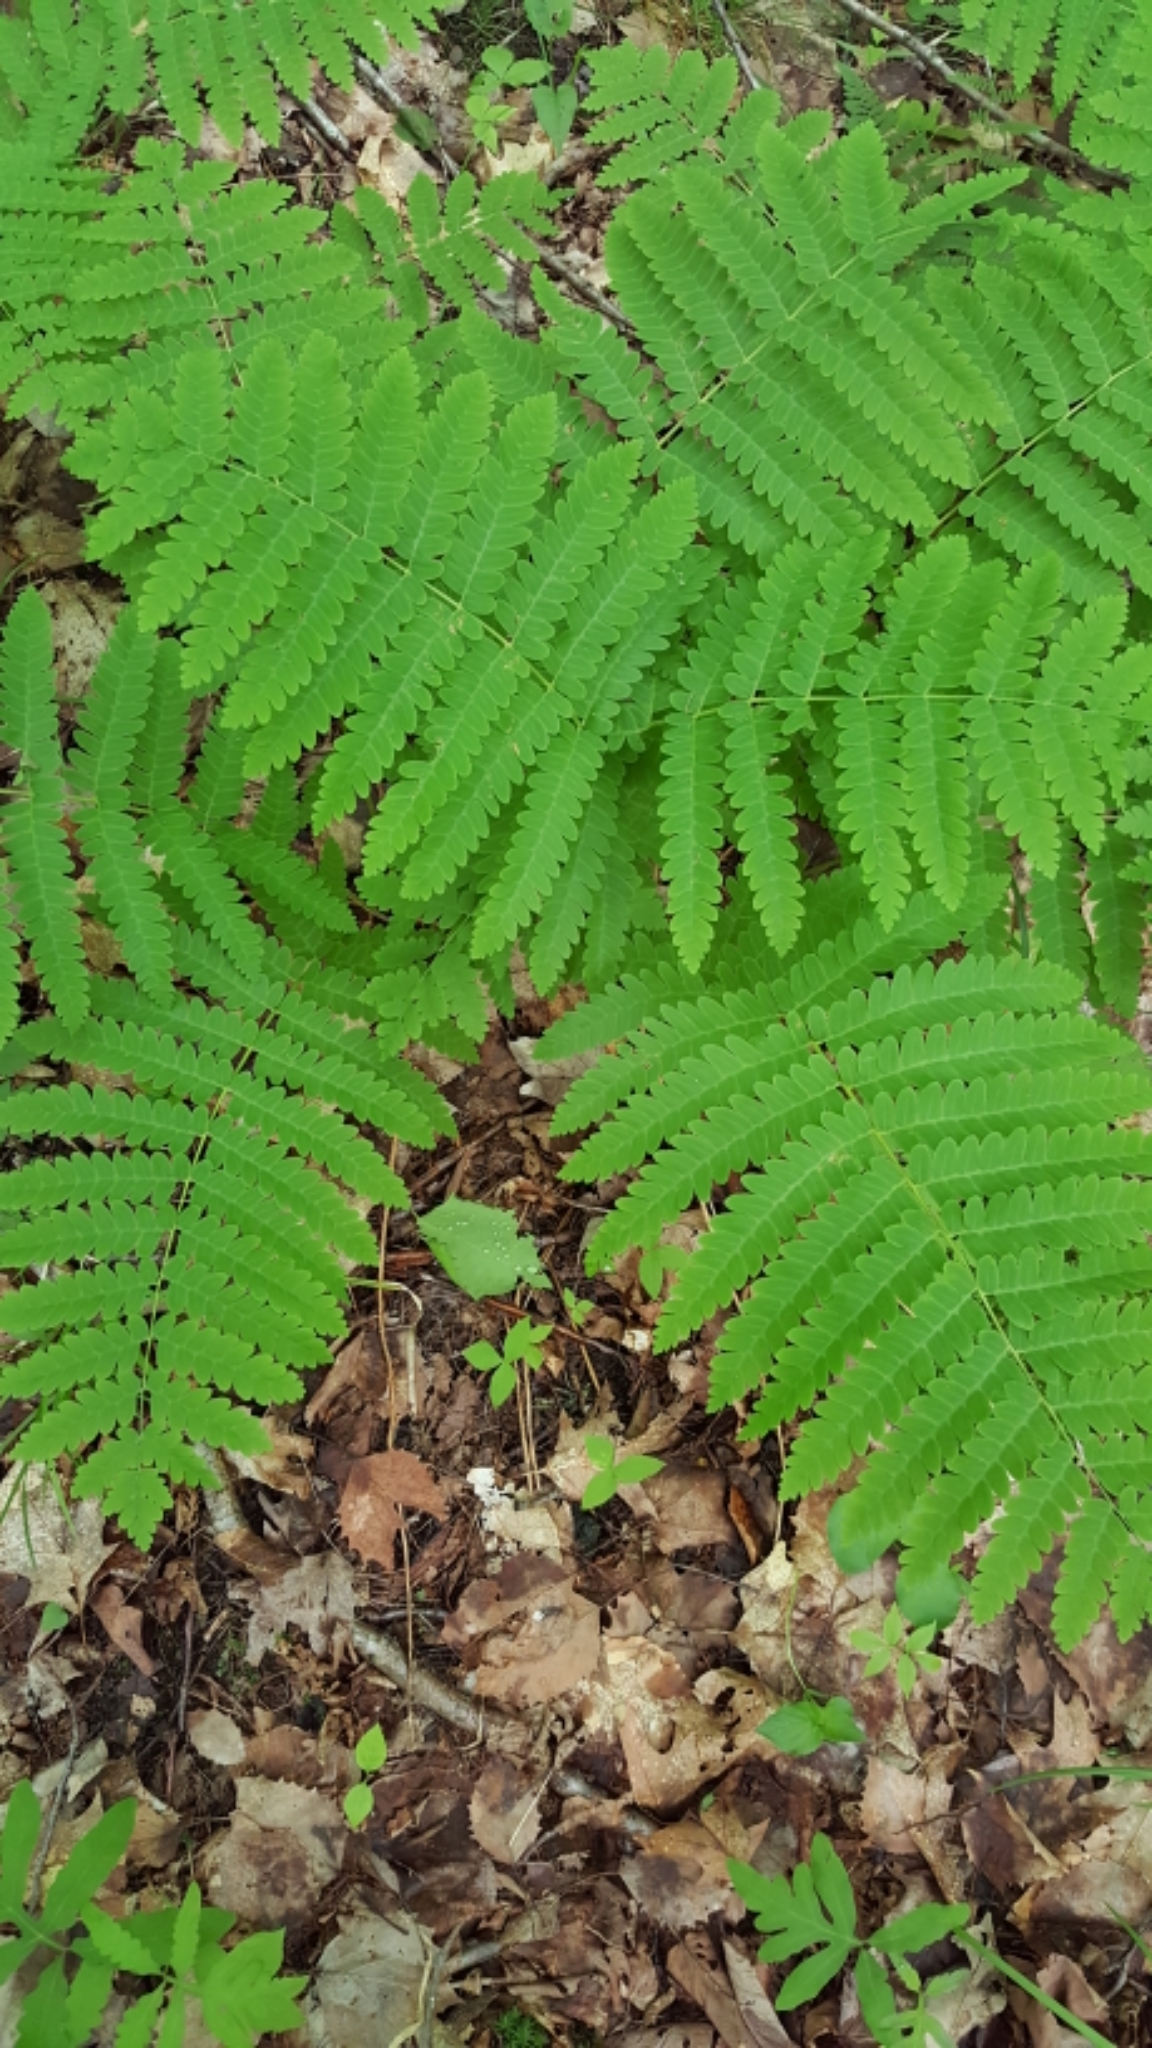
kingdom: Plantae
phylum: Tracheophyta
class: Polypodiopsida
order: Osmundales
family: Osmundaceae
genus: Claytosmunda
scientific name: Claytosmunda claytoniana
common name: Clayton's fern
